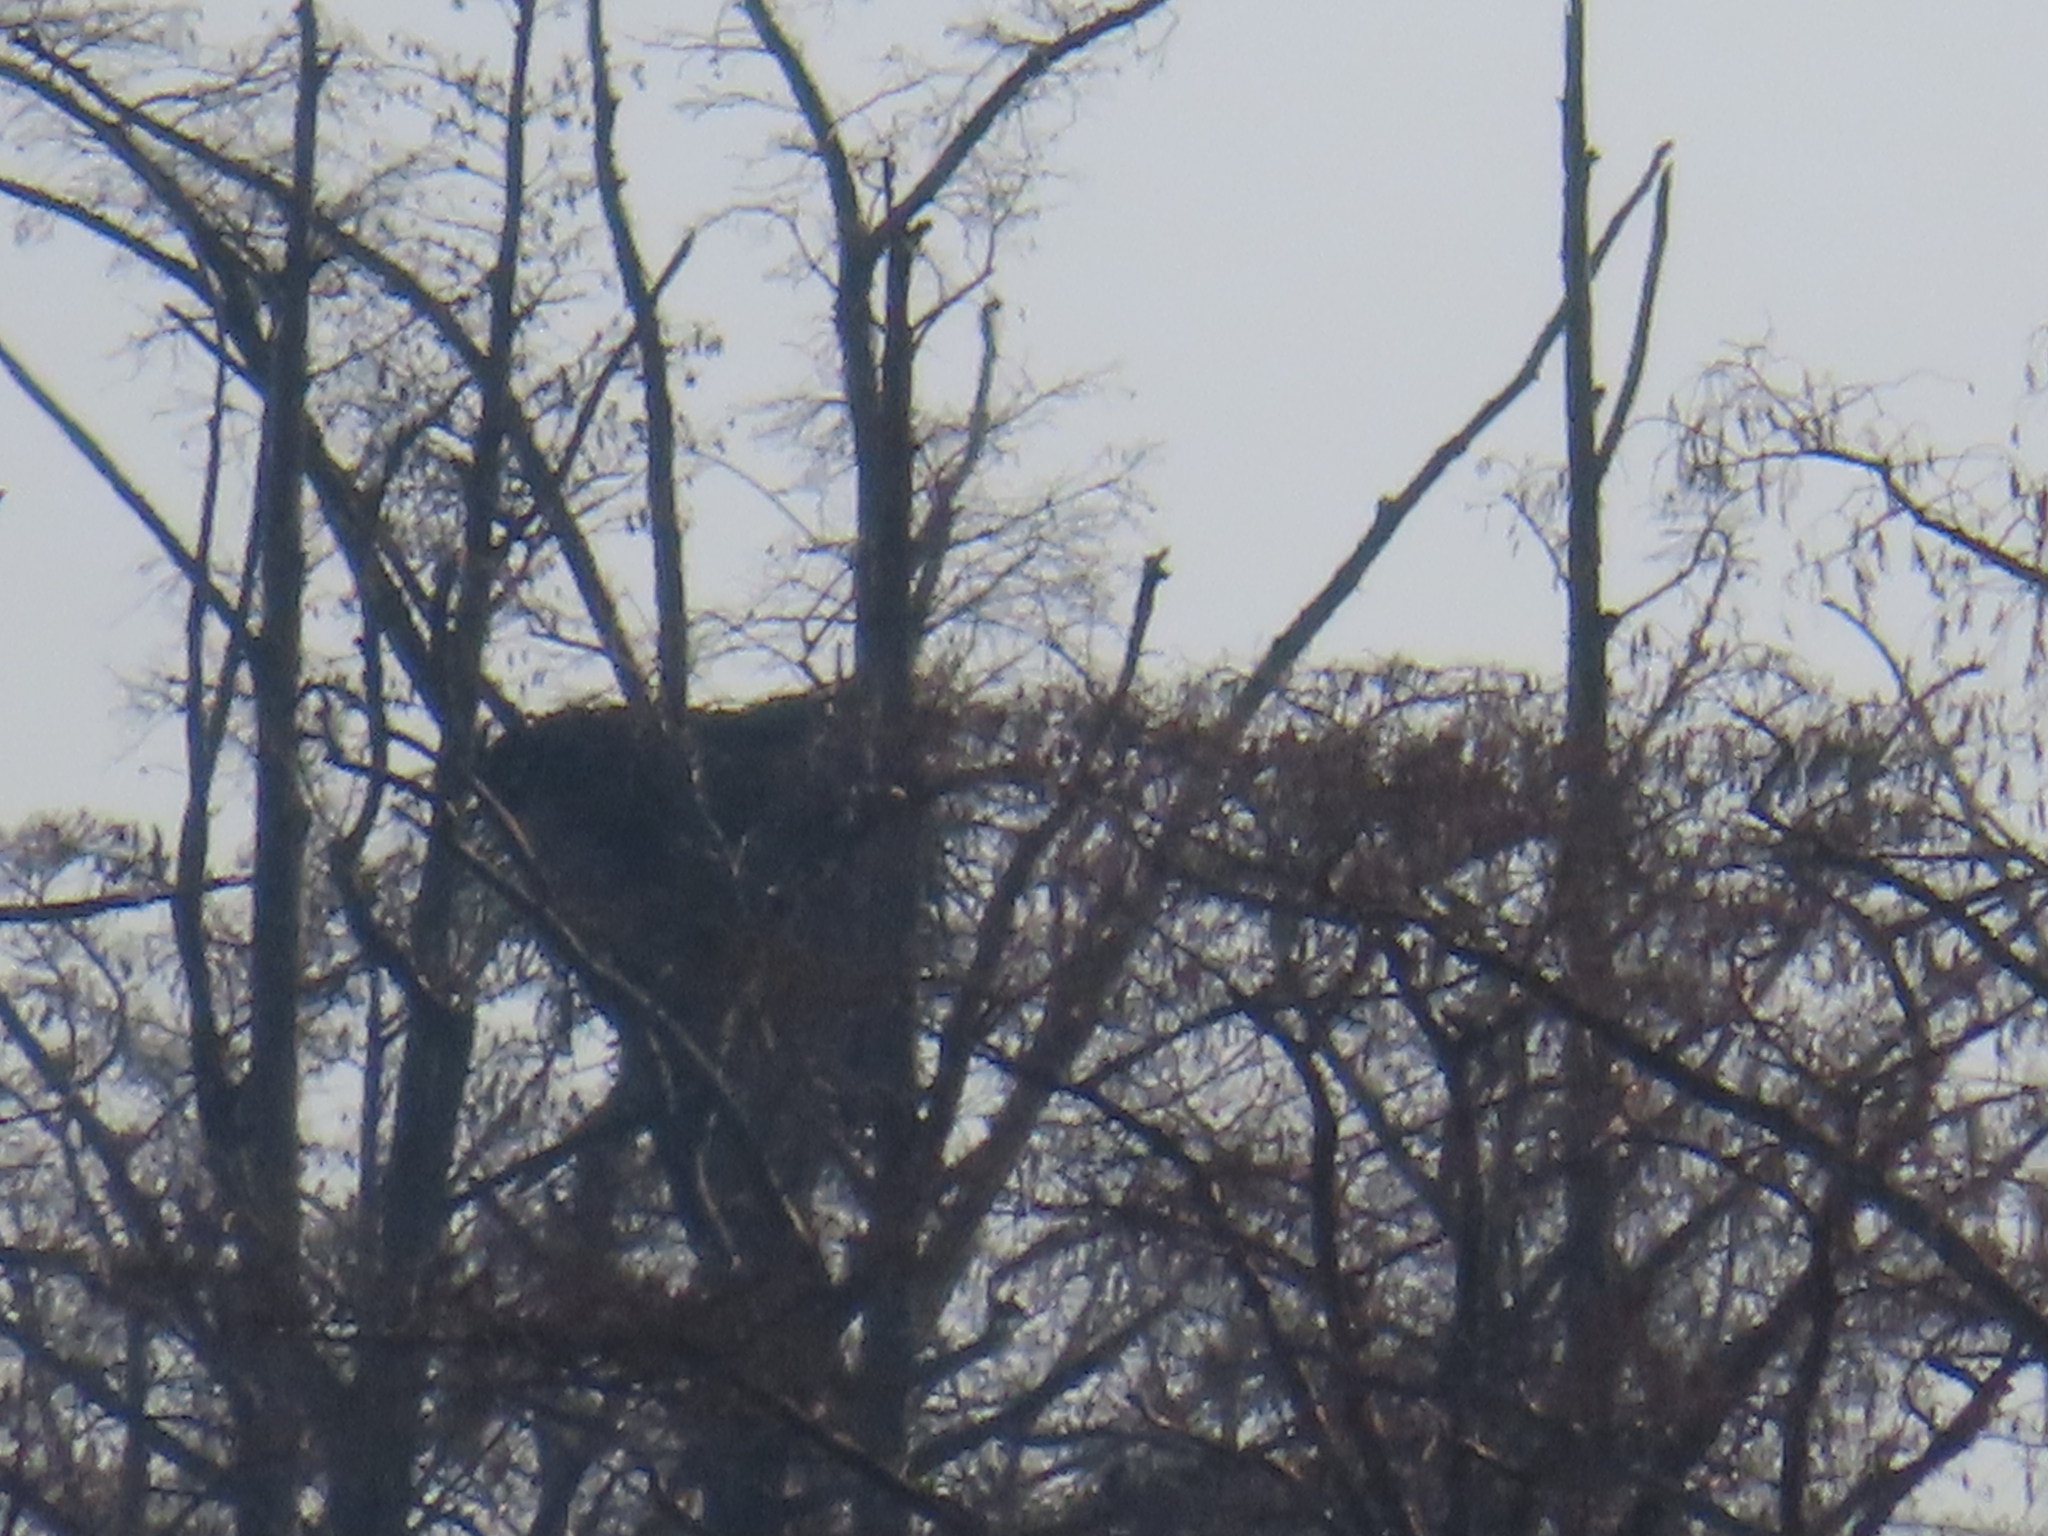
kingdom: Animalia
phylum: Chordata
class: Aves
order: Accipitriformes
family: Accipitridae
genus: Haliaeetus
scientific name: Haliaeetus leucocephalus
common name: Bald eagle
